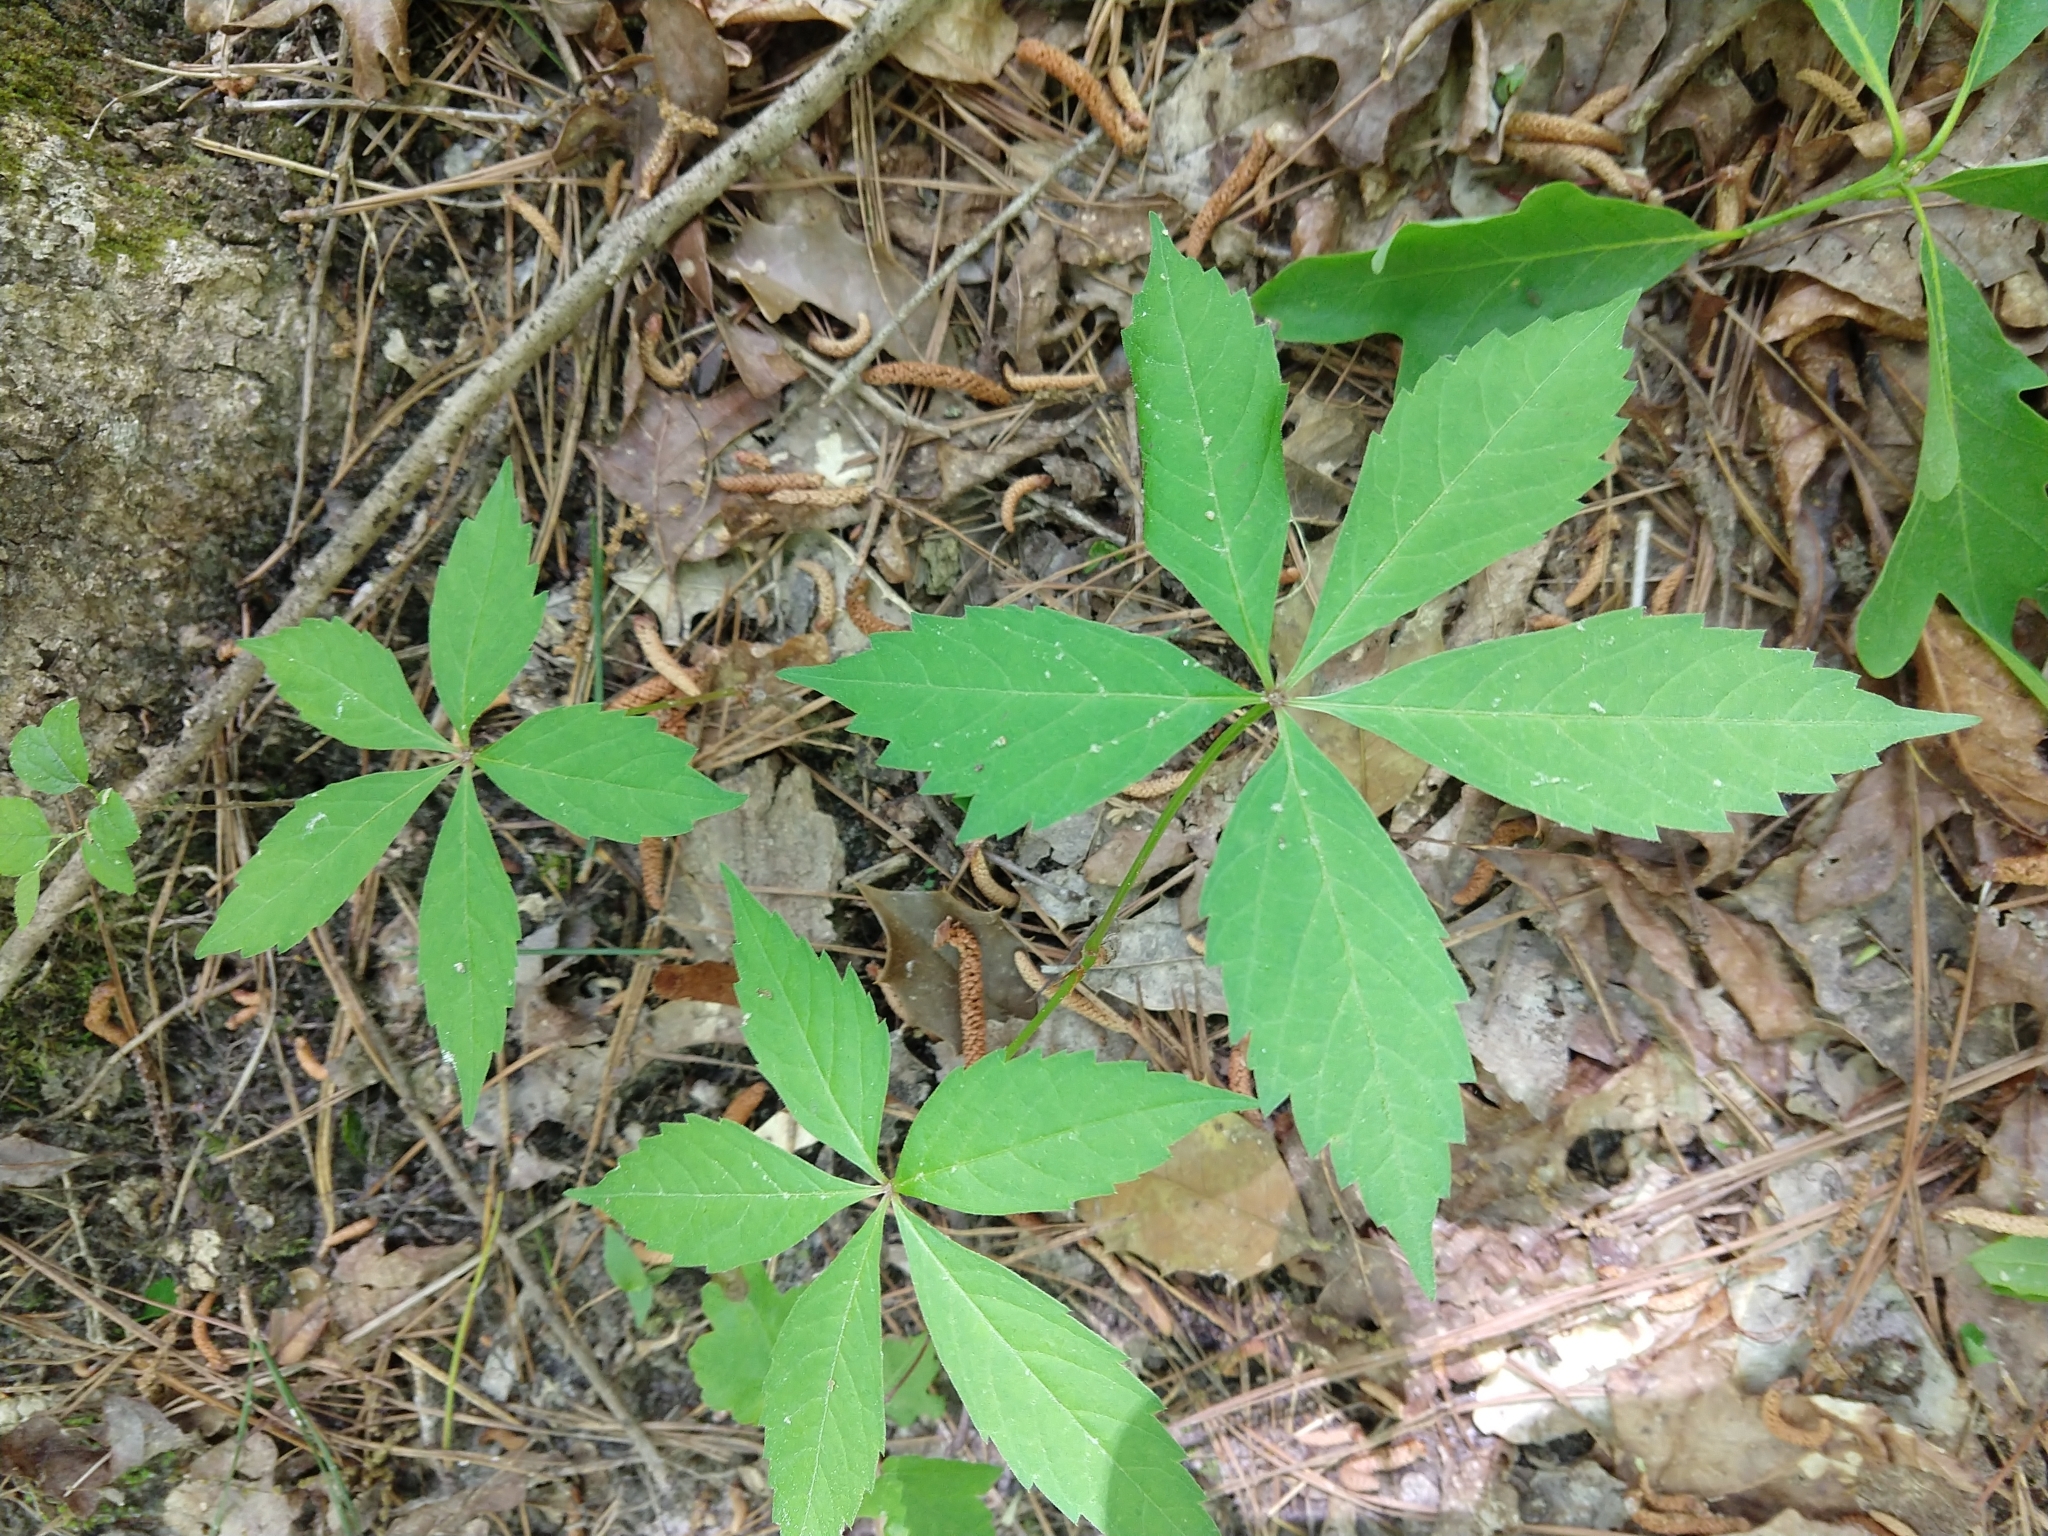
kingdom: Plantae
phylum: Tracheophyta
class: Magnoliopsida
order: Vitales
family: Vitaceae
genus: Parthenocissus
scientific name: Parthenocissus quinquefolia
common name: Virginia-creeper
